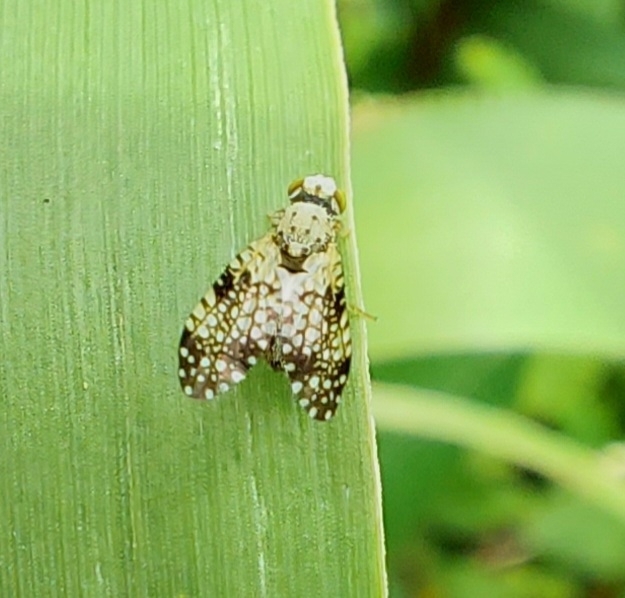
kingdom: Animalia
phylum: Arthropoda
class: Insecta
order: Diptera
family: Tephritidae
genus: Campiglossa
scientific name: Campiglossa albiceps
